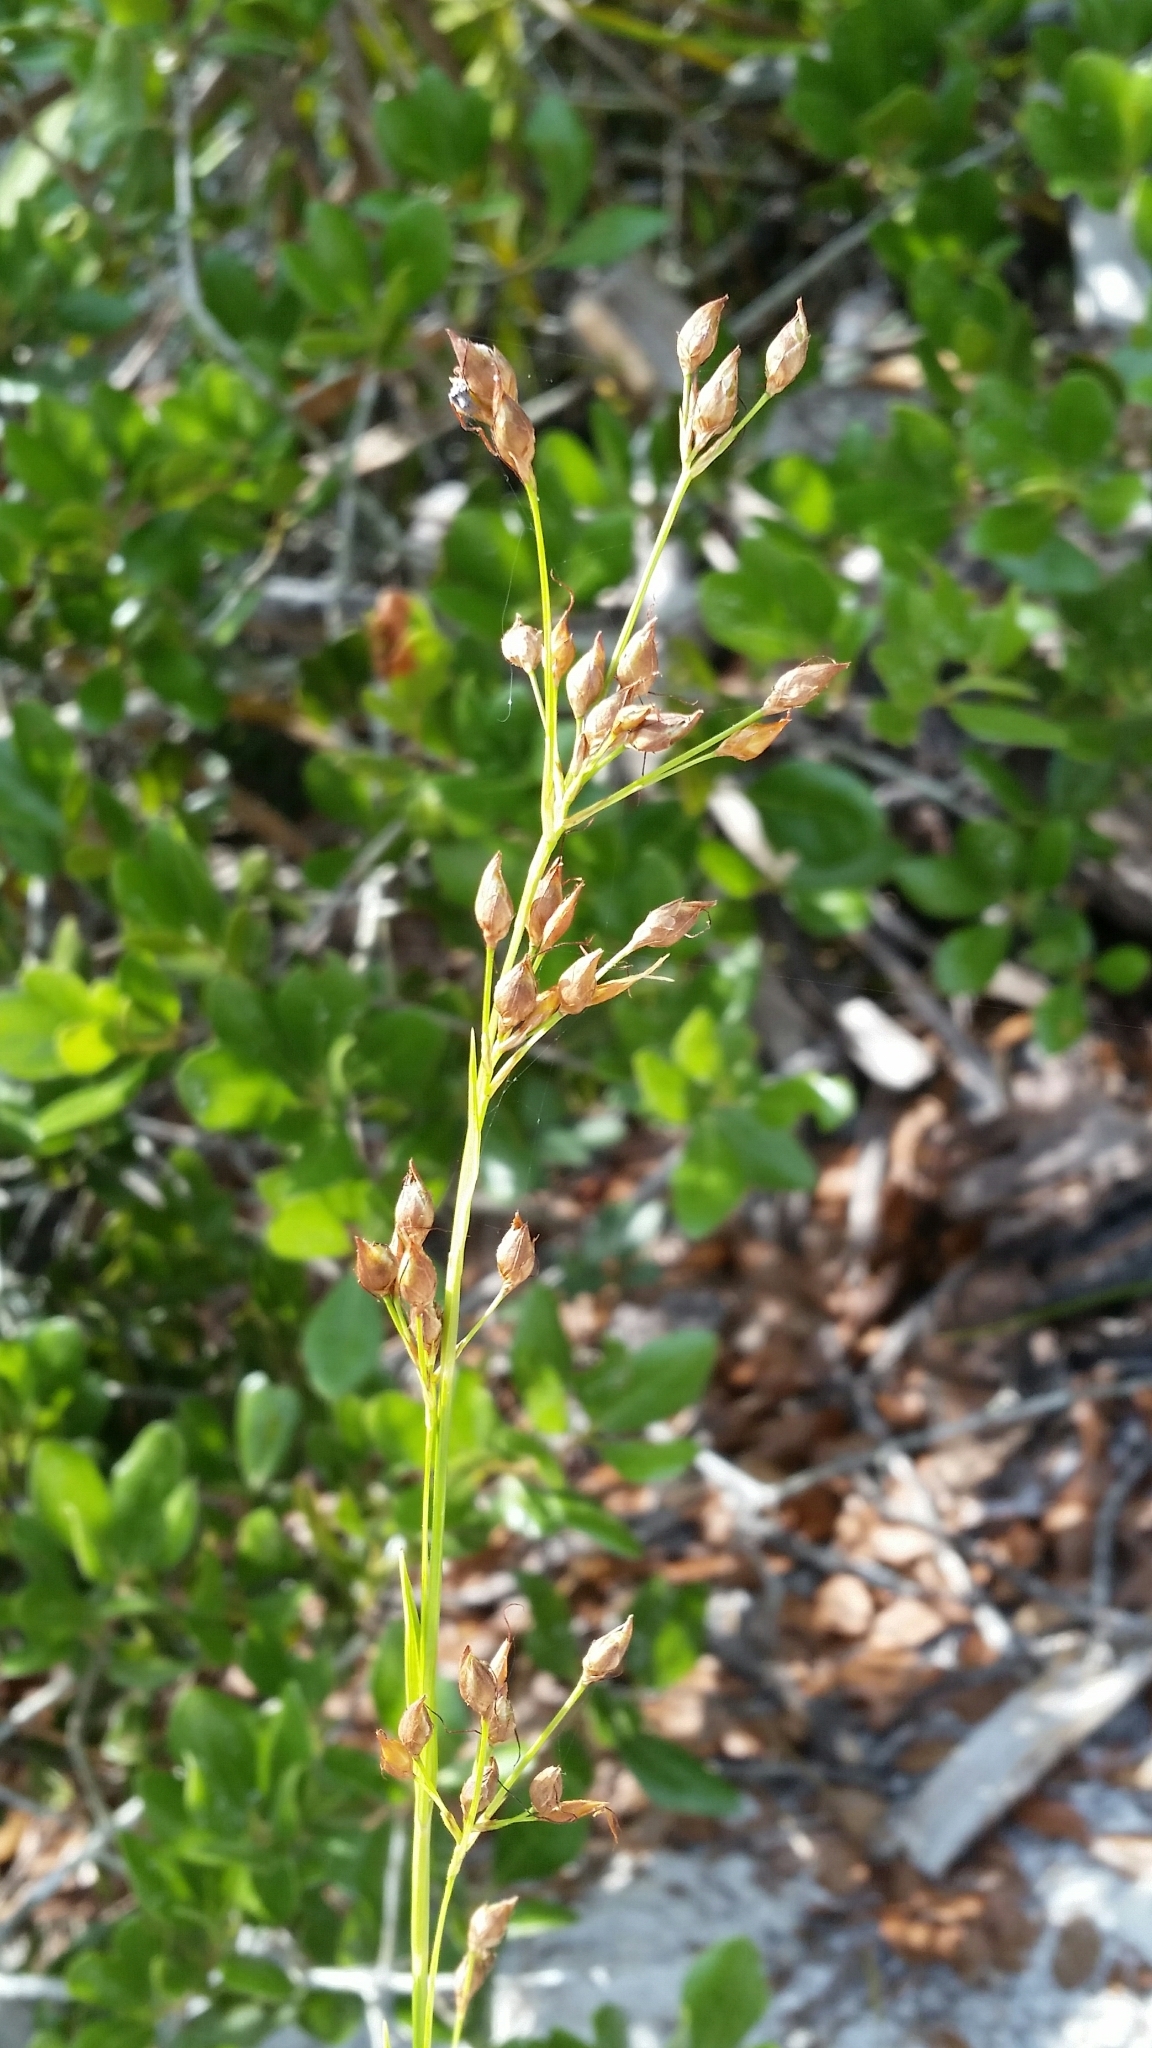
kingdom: Plantae
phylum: Tracheophyta
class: Liliopsida
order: Poales
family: Cyperaceae
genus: Rhynchospora
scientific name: Rhynchospora megalocarpa
